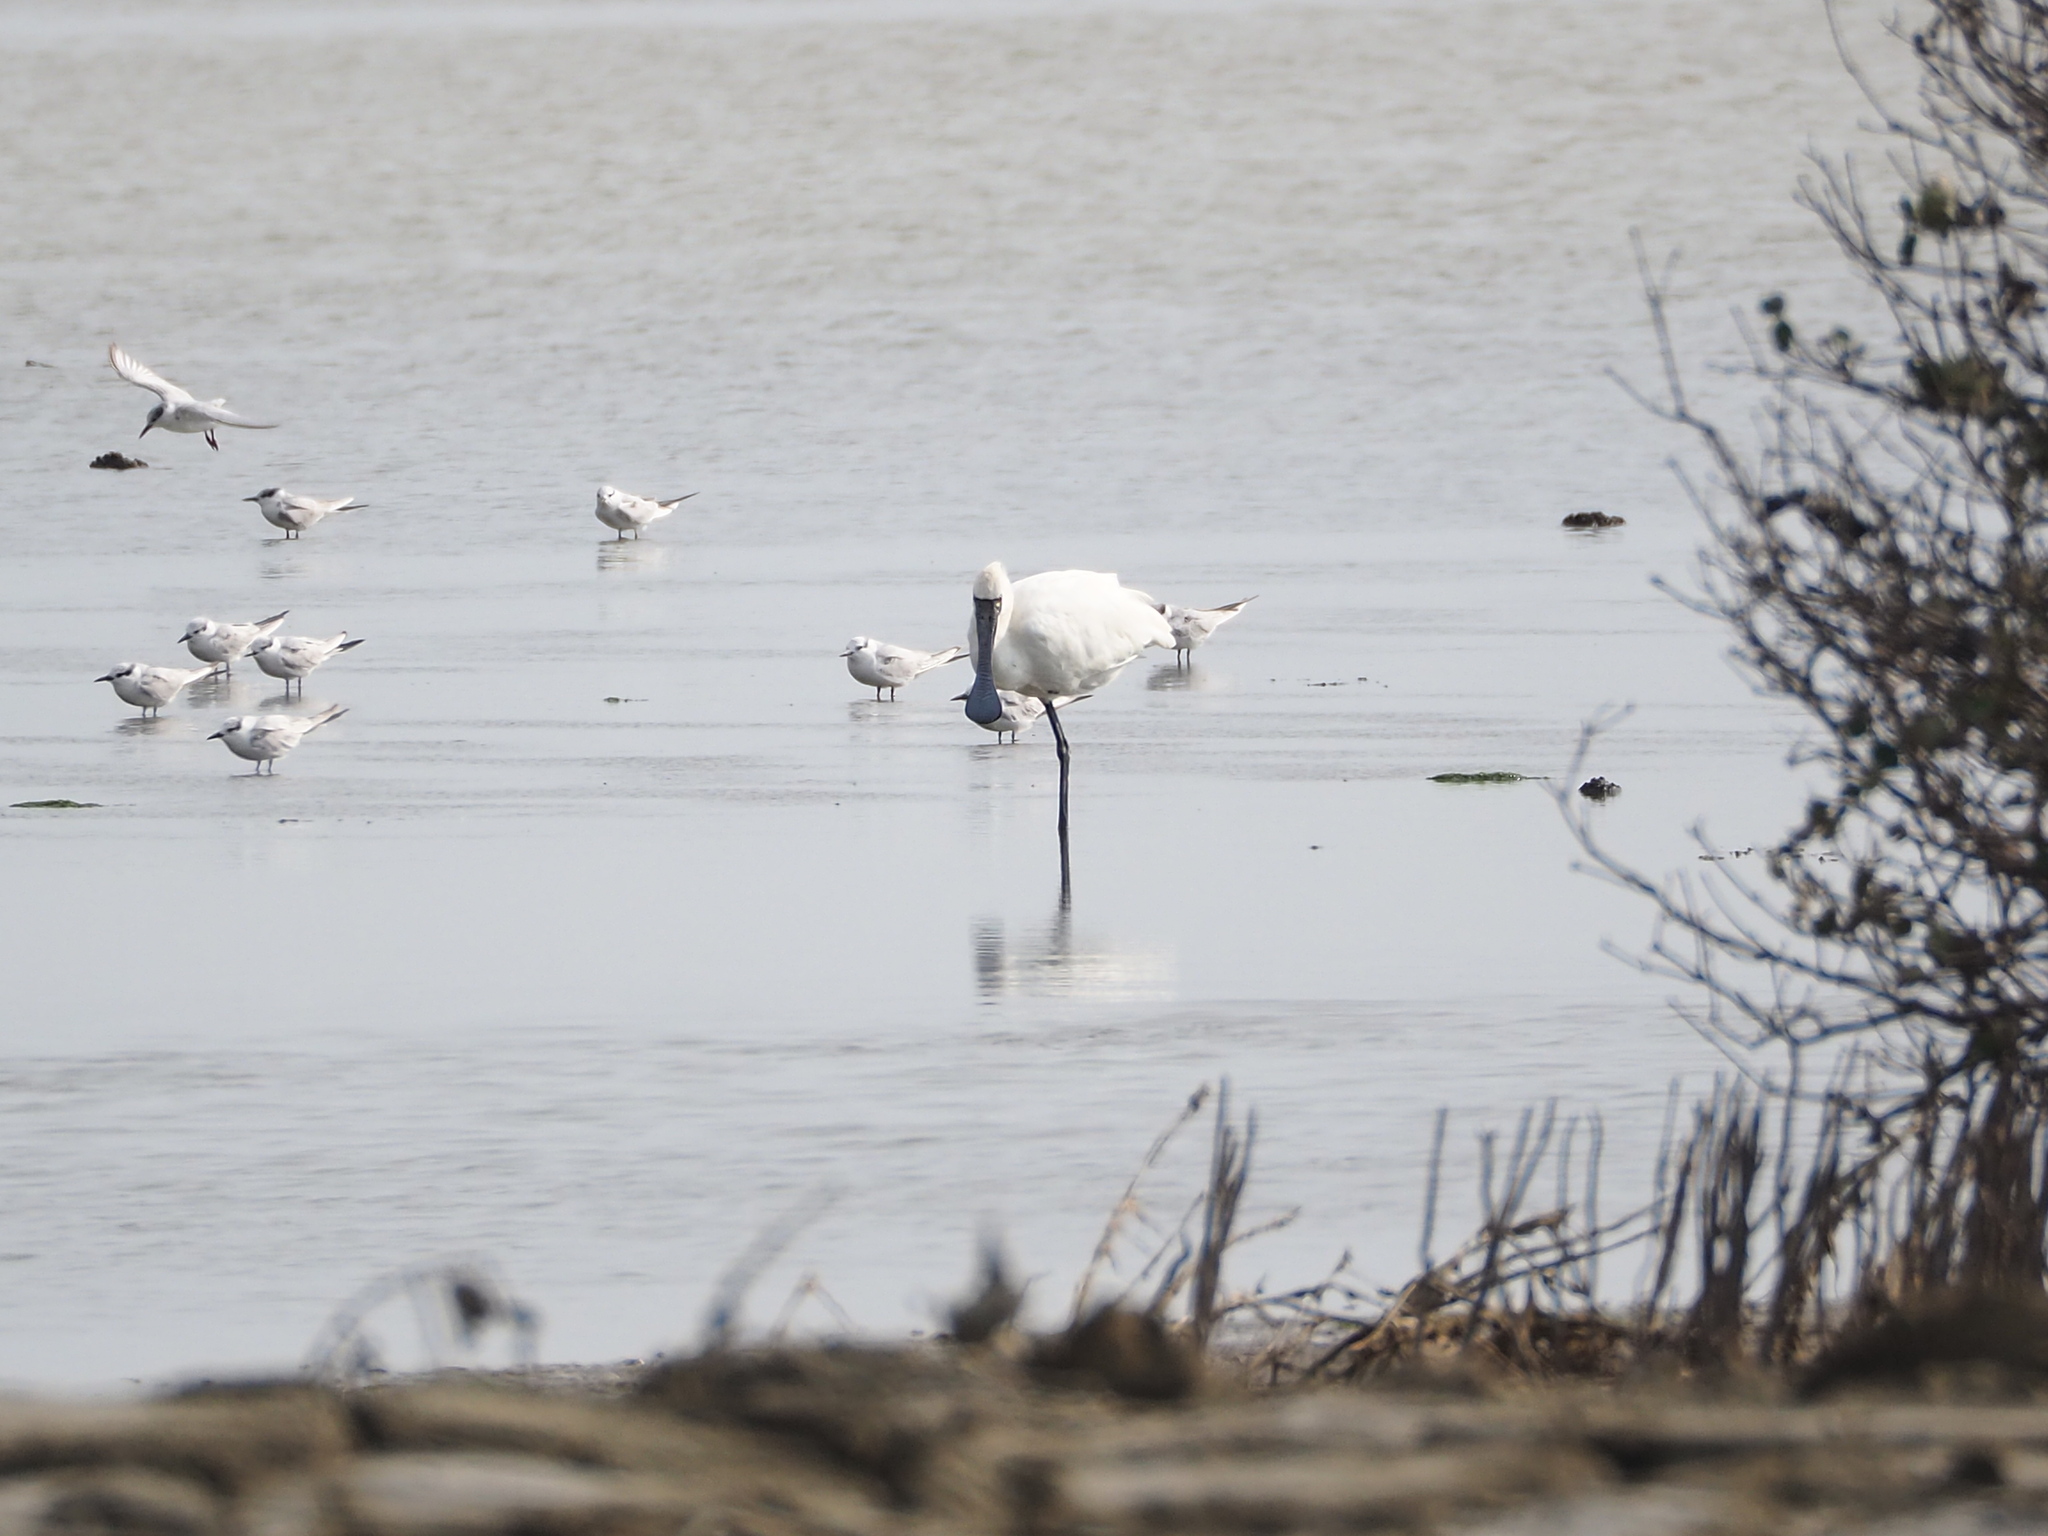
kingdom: Animalia
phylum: Chordata
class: Aves
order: Pelecaniformes
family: Threskiornithidae
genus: Platalea
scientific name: Platalea minor
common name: Black-faced spoonbill
